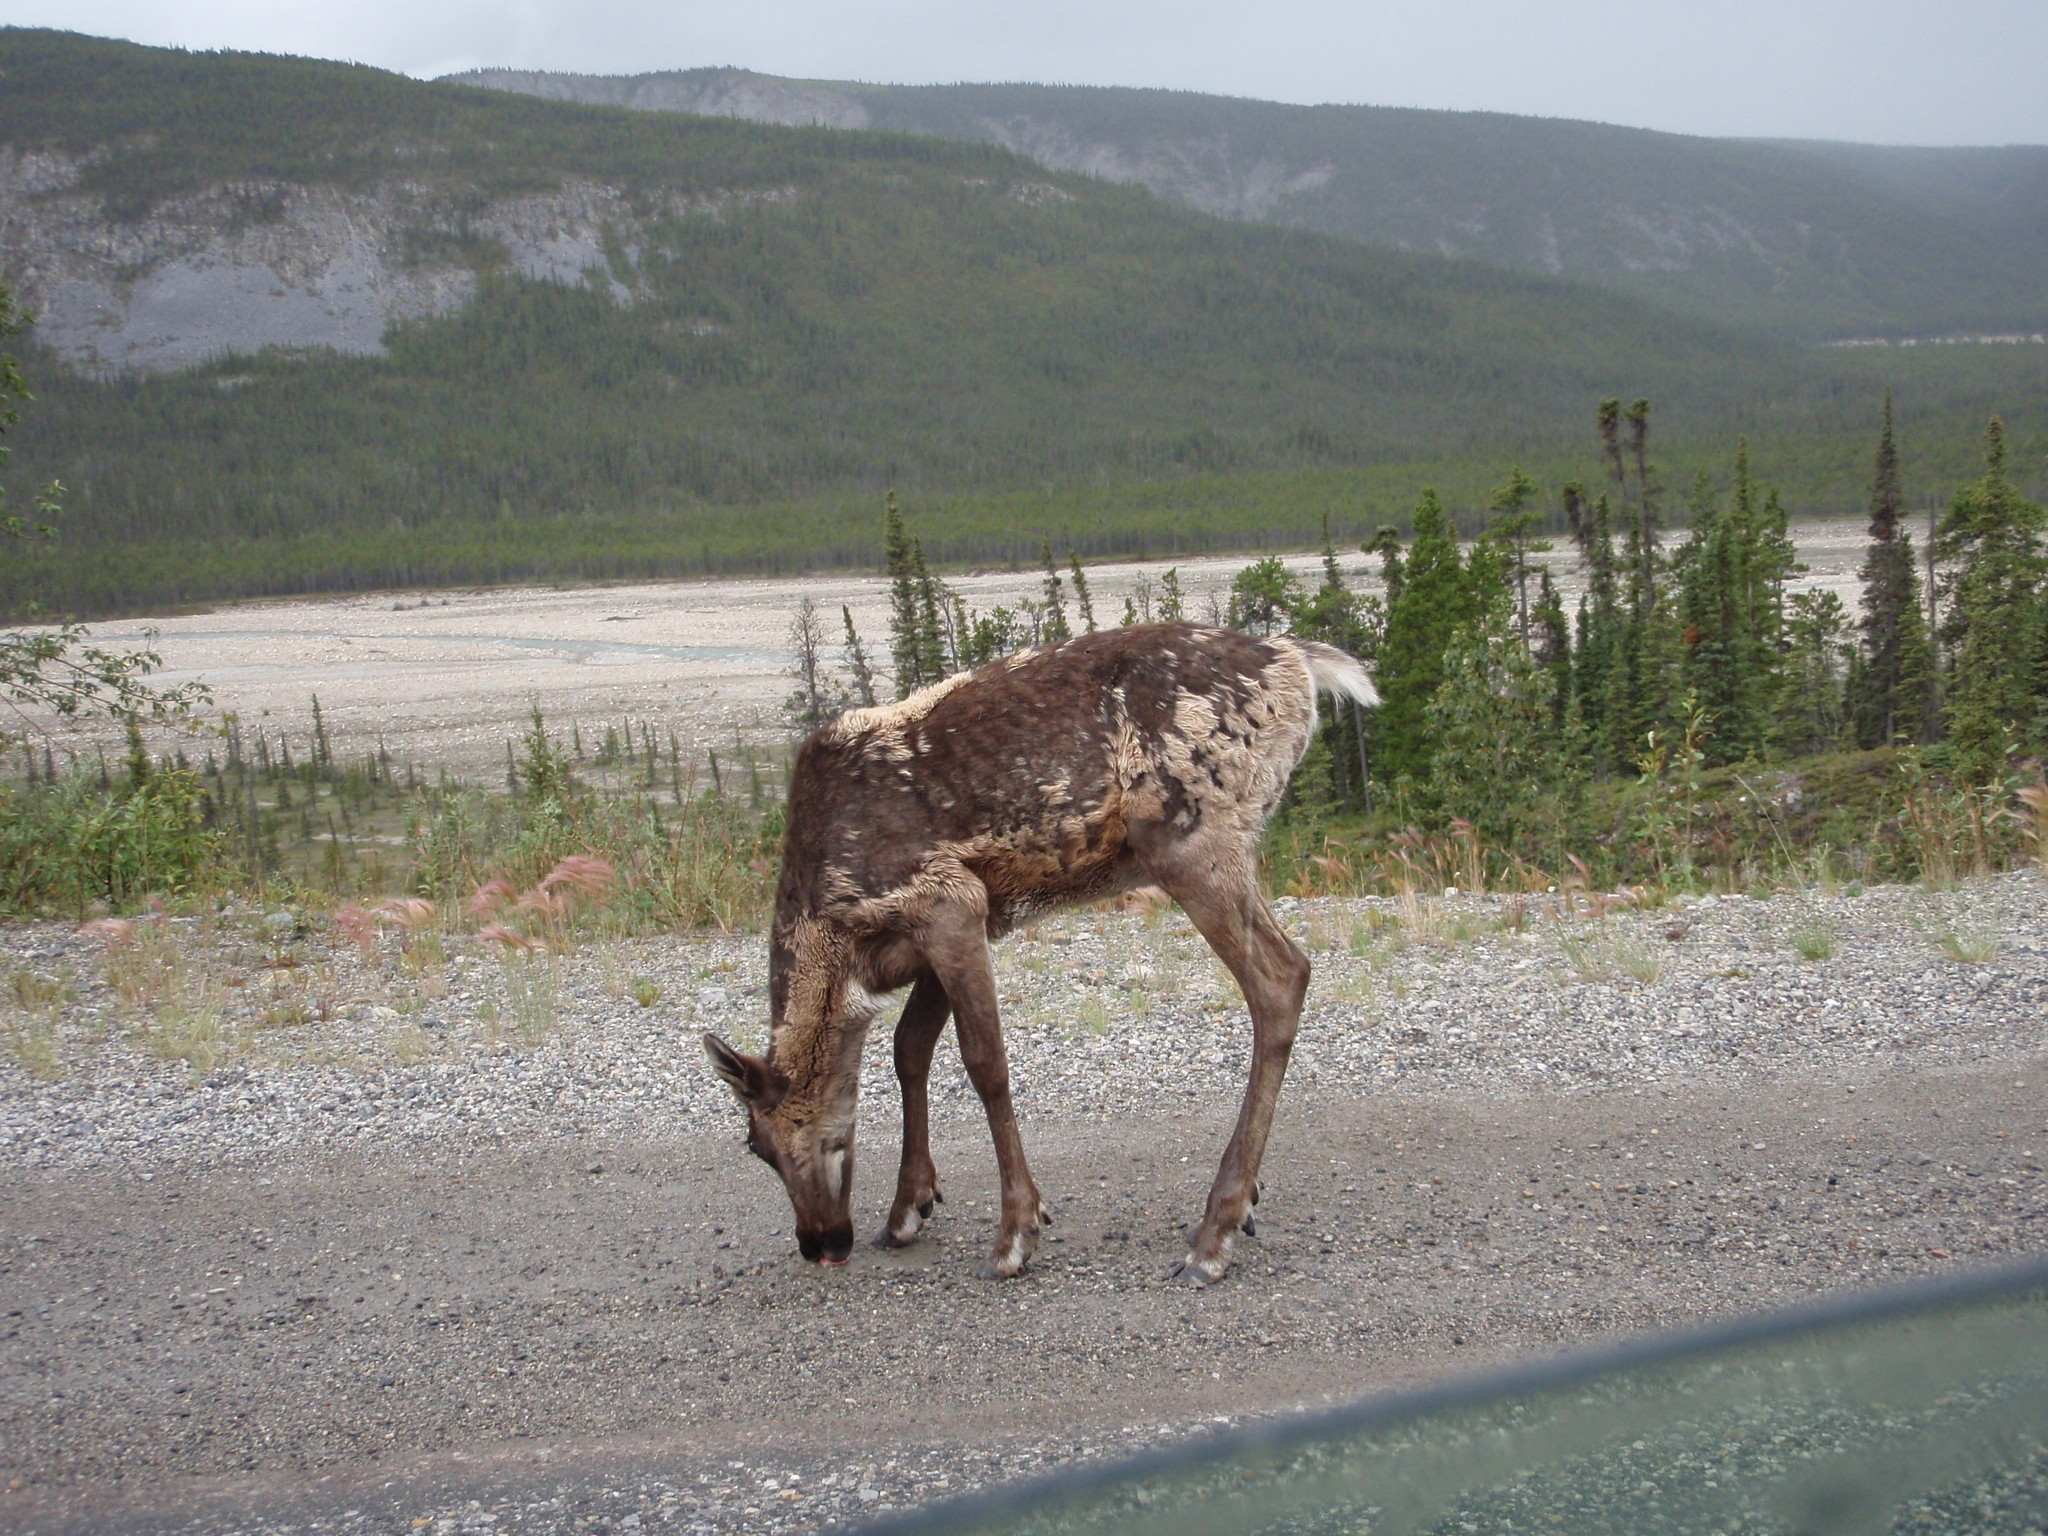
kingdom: Animalia
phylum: Chordata
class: Mammalia
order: Artiodactyla
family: Cervidae
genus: Rangifer
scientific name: Rangifer tarandus
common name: Reindeer
